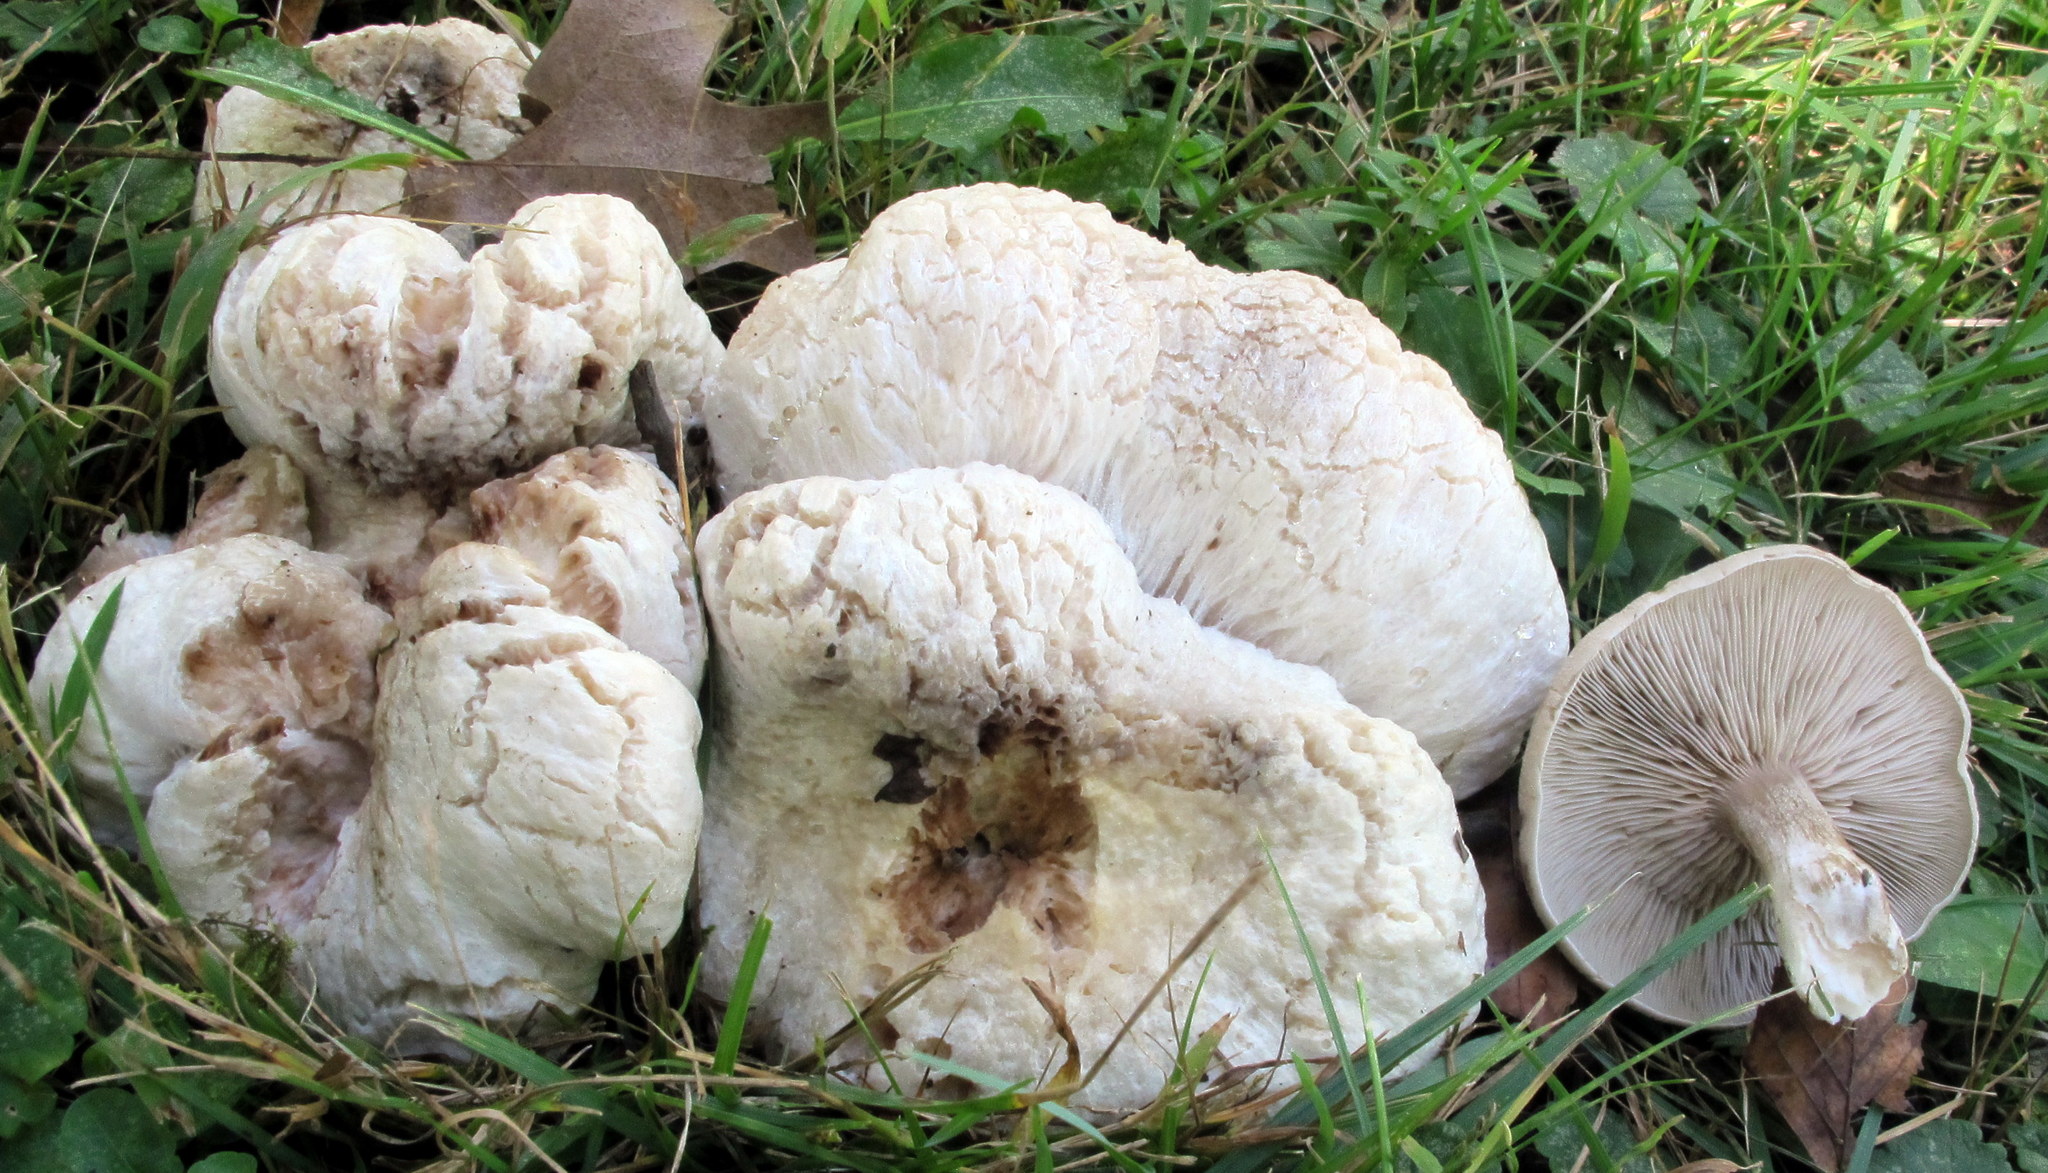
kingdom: Fungi
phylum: Basidiomycota
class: Agaricomycetes
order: Agaricales
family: Entolomataceae
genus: Entoloma
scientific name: Entoloma abortivum
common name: Aborted entoloma
